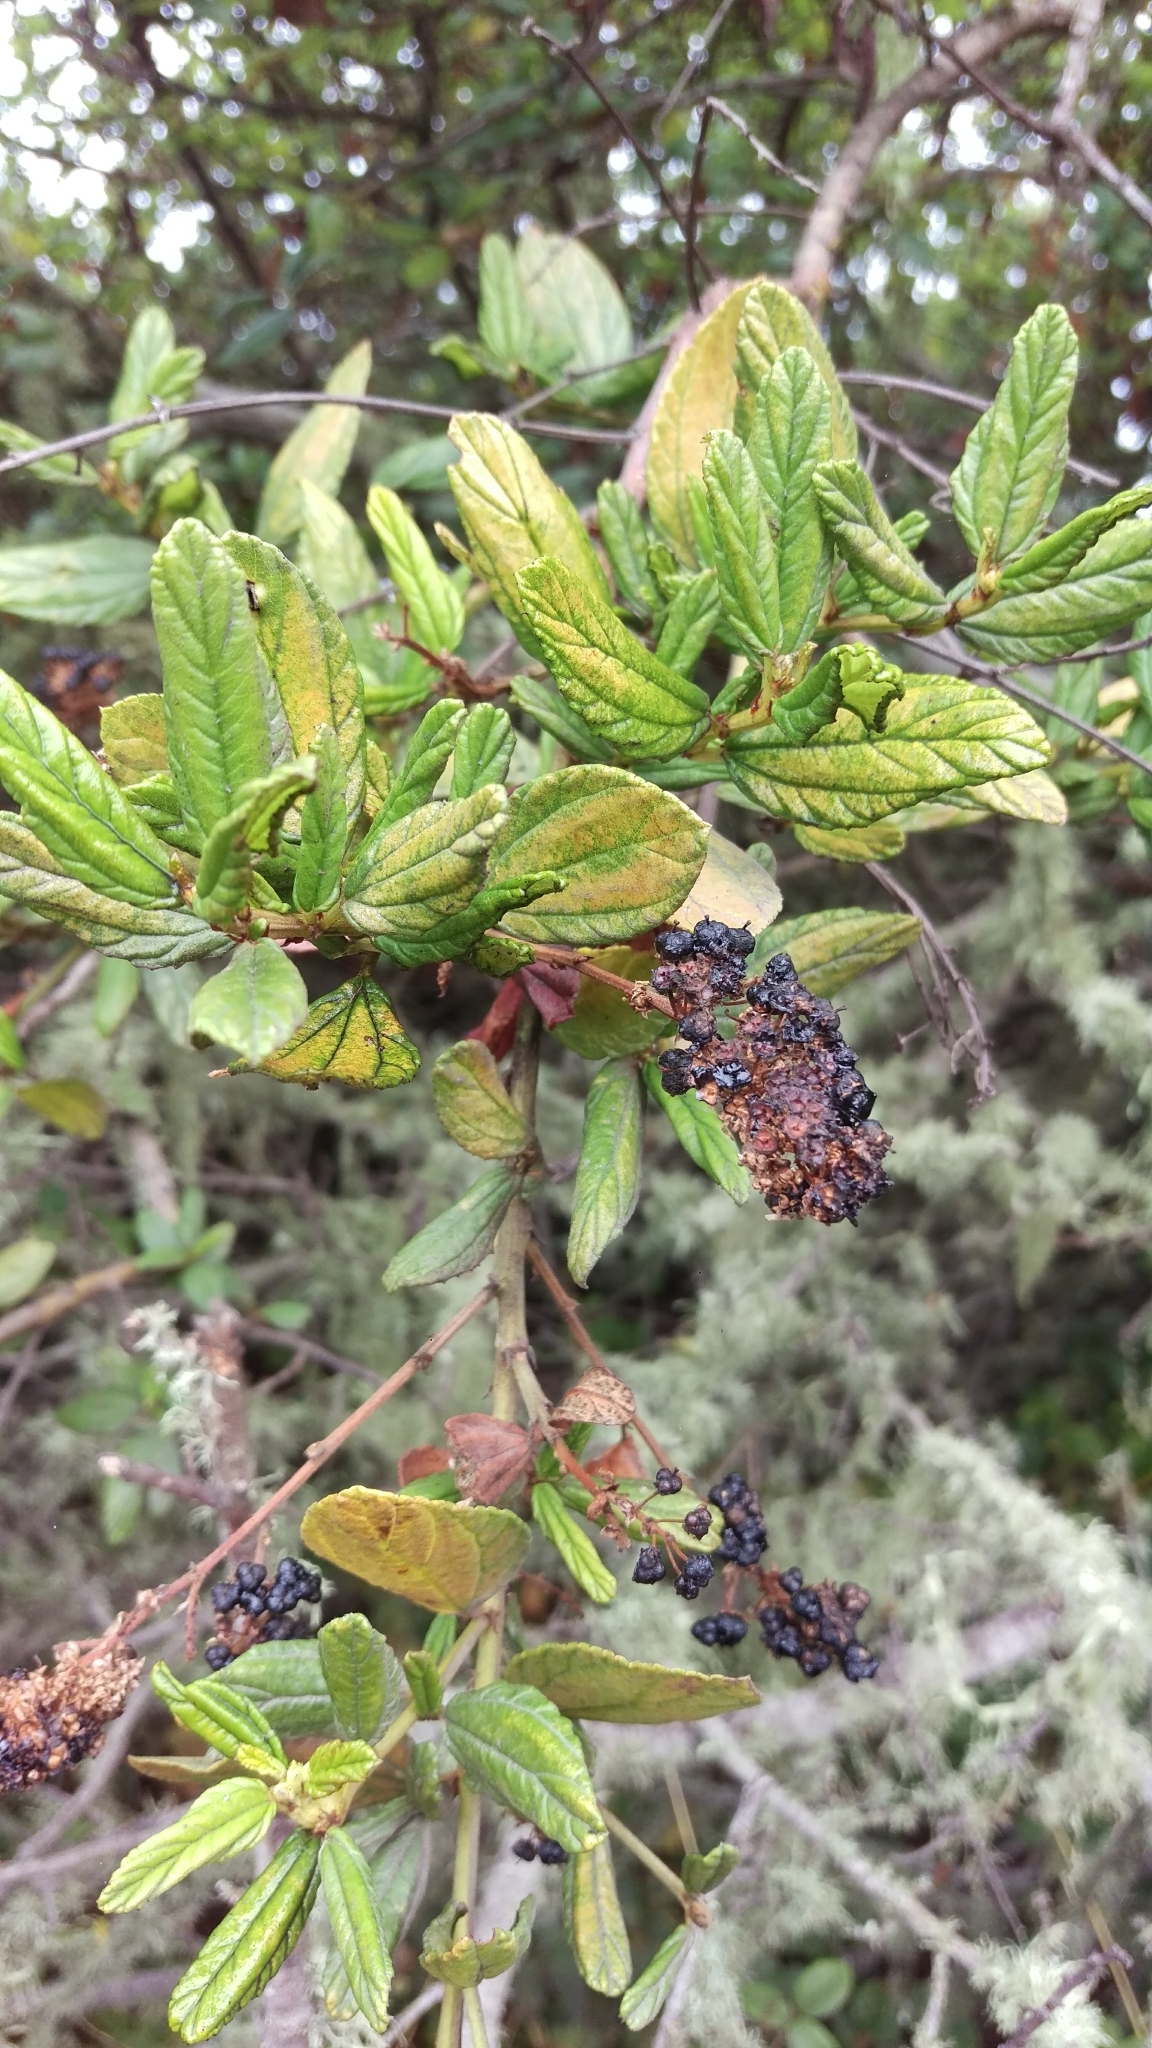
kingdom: Plantae
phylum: Tracheophyta
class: Magnoliopsida
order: Rosales
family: Rhamnaceae
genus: Ceanothus
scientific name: Ceanothus griseus
